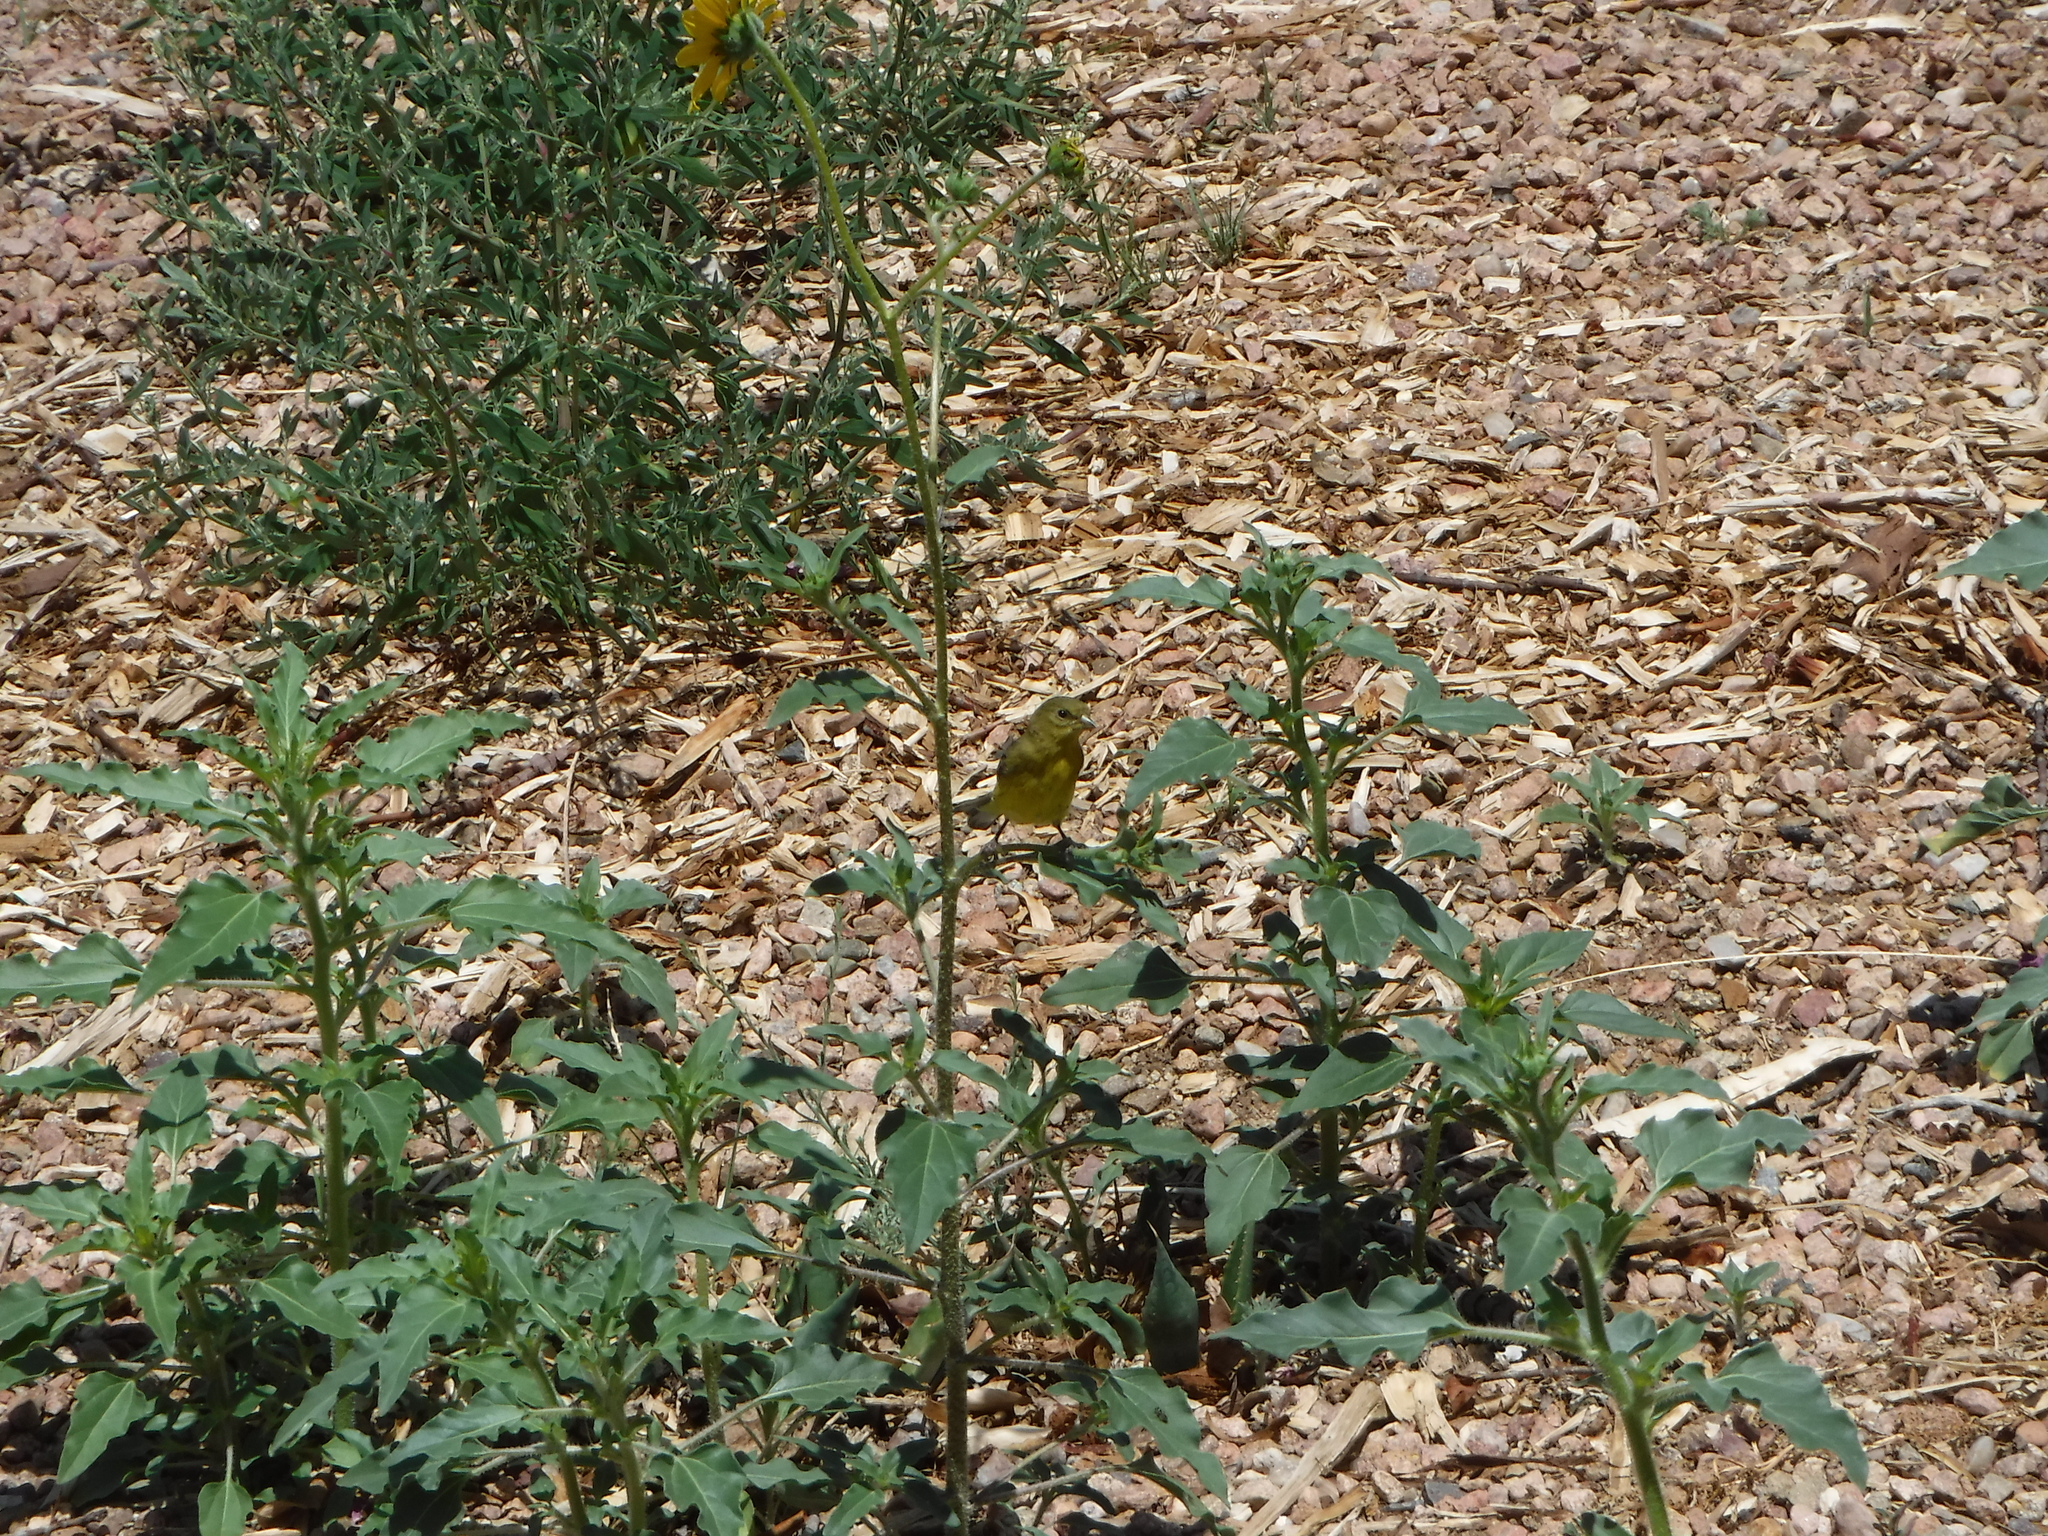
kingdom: Animalia
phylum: Chordata
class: Aves
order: Passeriformes
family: Fringillidae
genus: Spinus
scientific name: Spinus psaltria
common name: Lesser goldfinch
